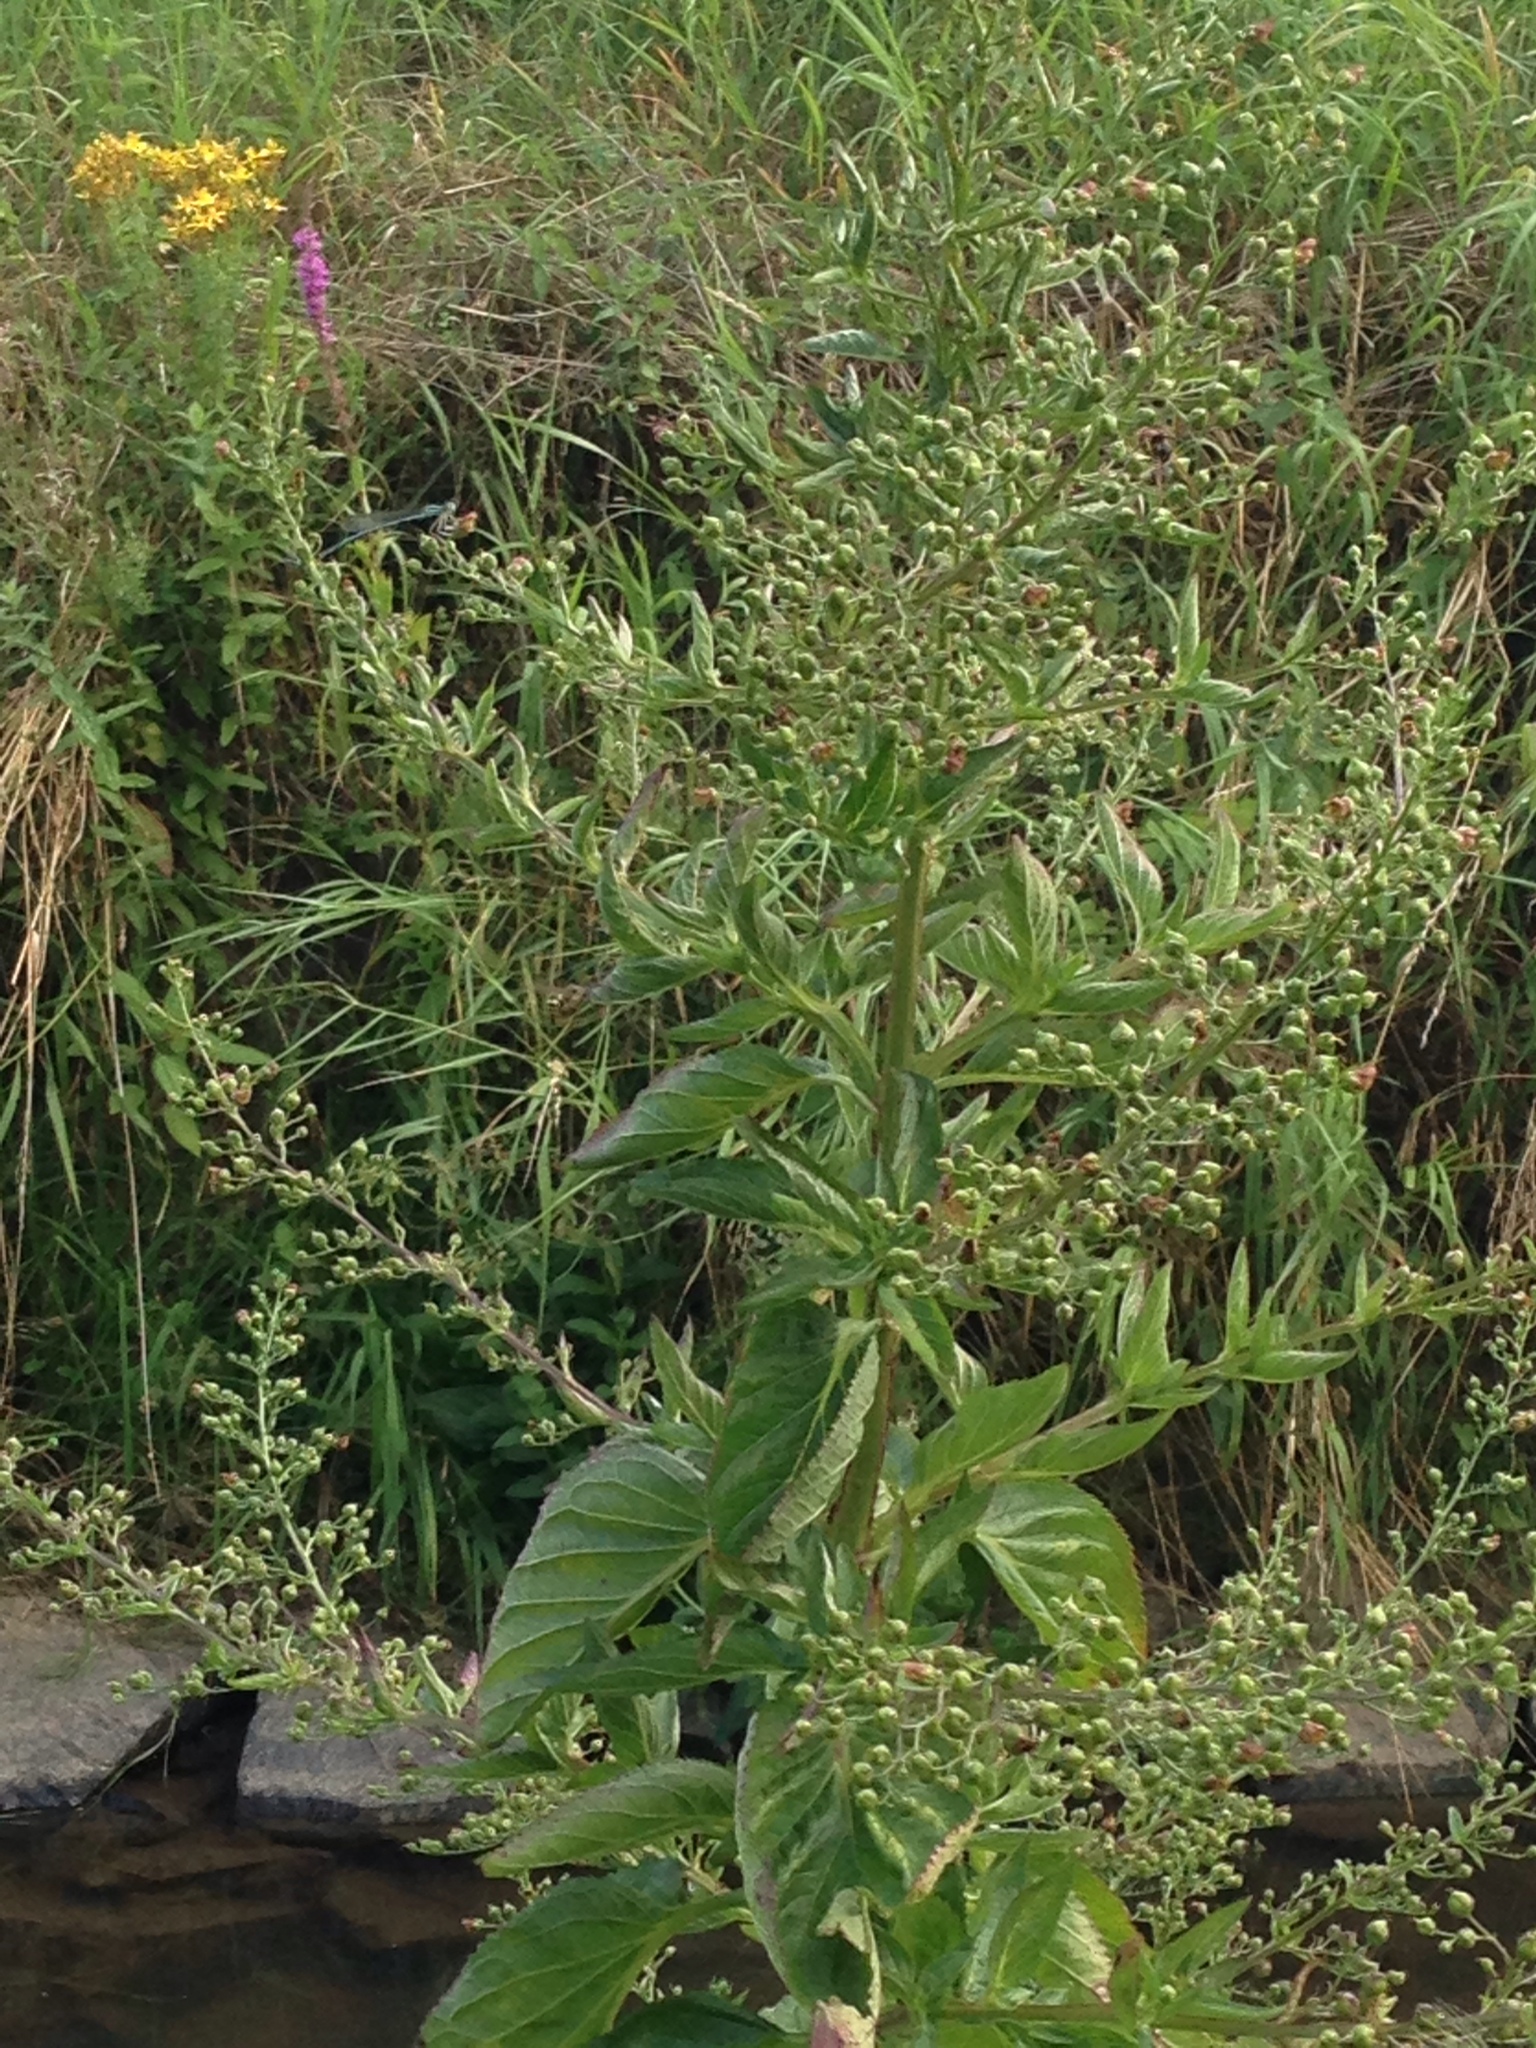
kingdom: Plantae
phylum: Tracheophyta
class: Magnoliopsida
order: Lamiales
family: Scrophulariaceae
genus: Scrophularia
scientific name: Scrophularia nodosa
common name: Common figwort
